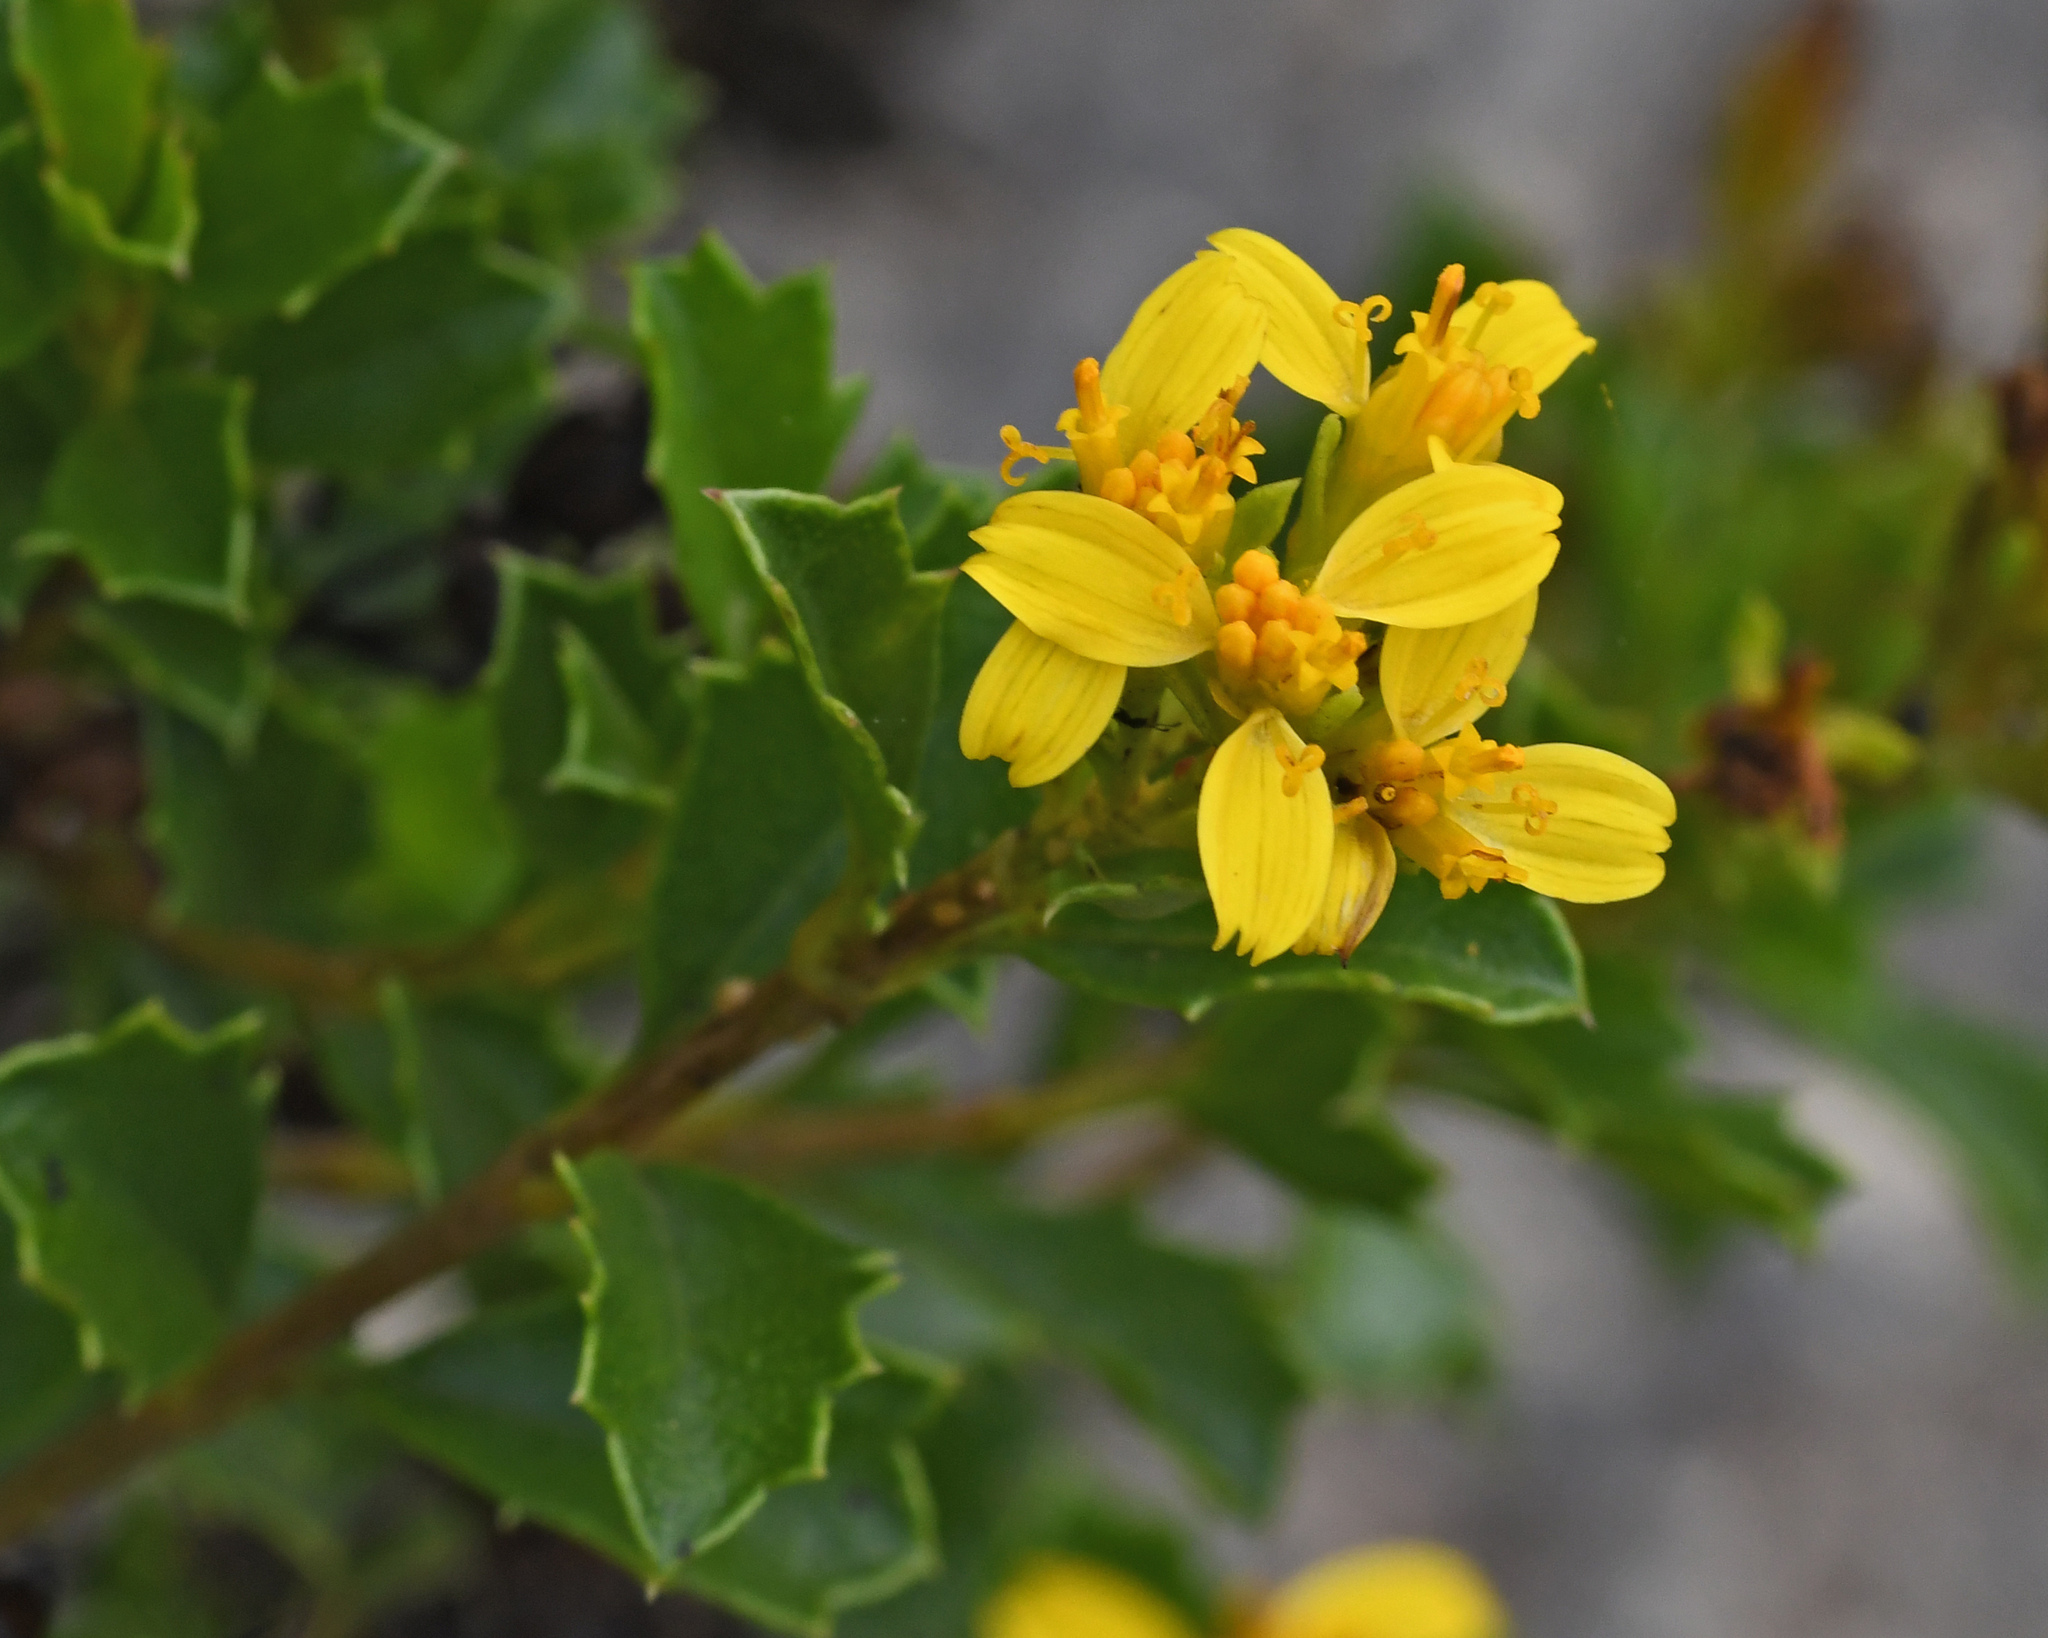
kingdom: Plantae
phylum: Tracheophyta
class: Magnoliopsida
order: Asterales
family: Asteraceae
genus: Narvalina
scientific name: Narvalina domingensis
